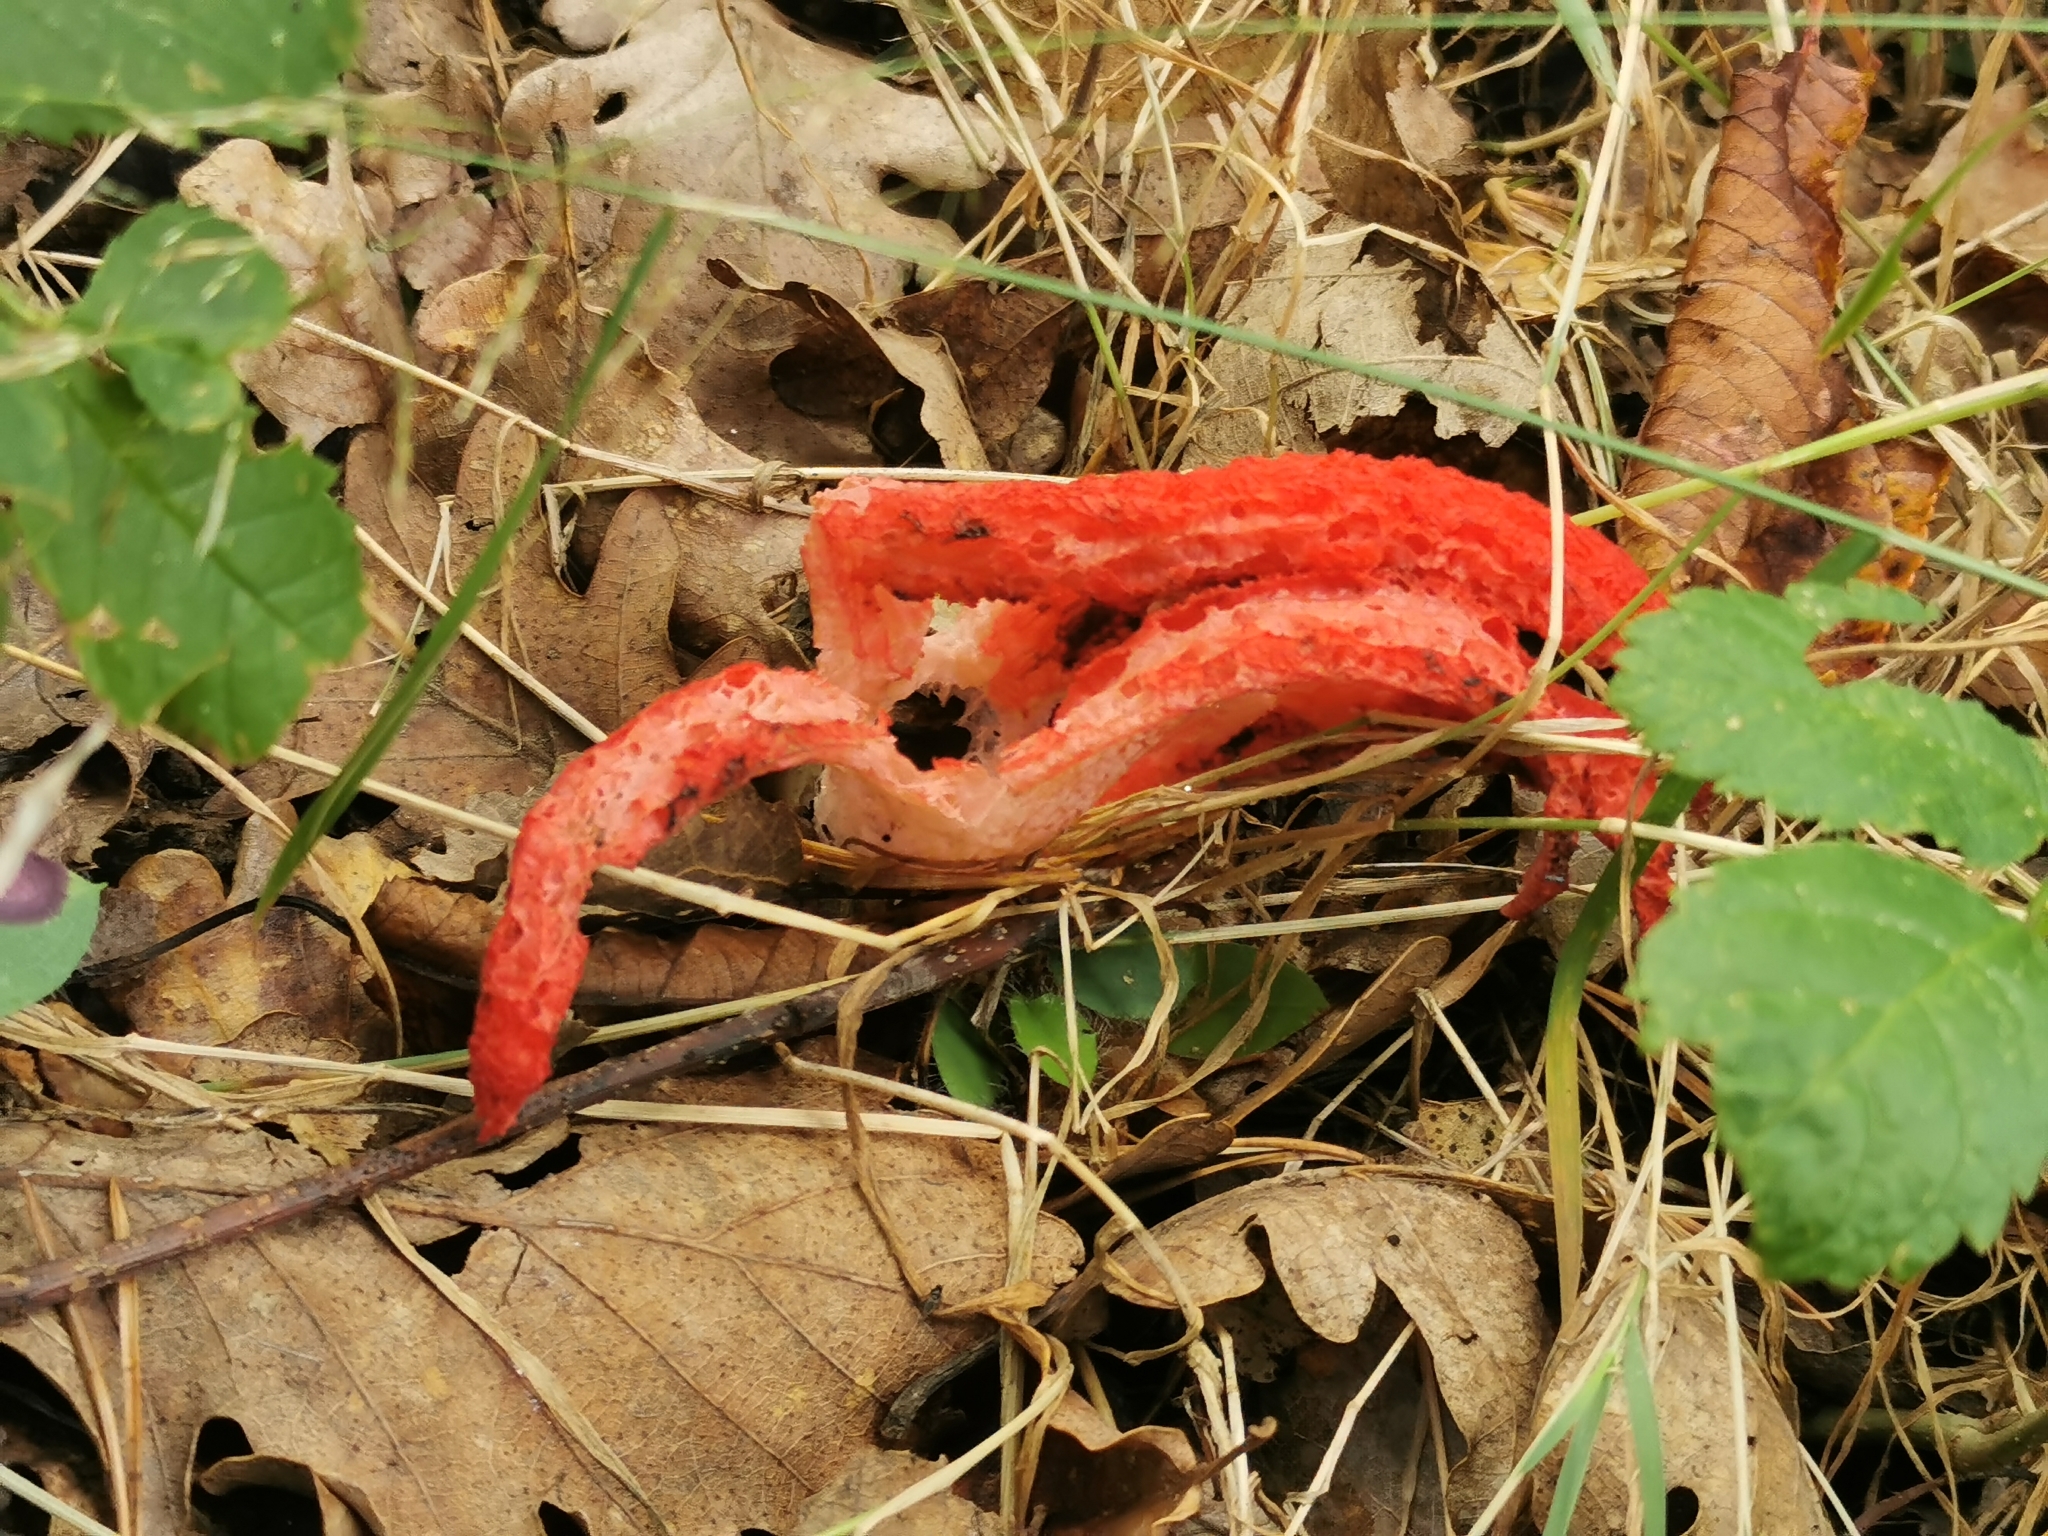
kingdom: Fungi
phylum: Basidiomycota
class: Agaricomycetes
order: Phallales
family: Phallaceae
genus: Clathrus
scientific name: Clathrus archeri
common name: Devil's fingers
